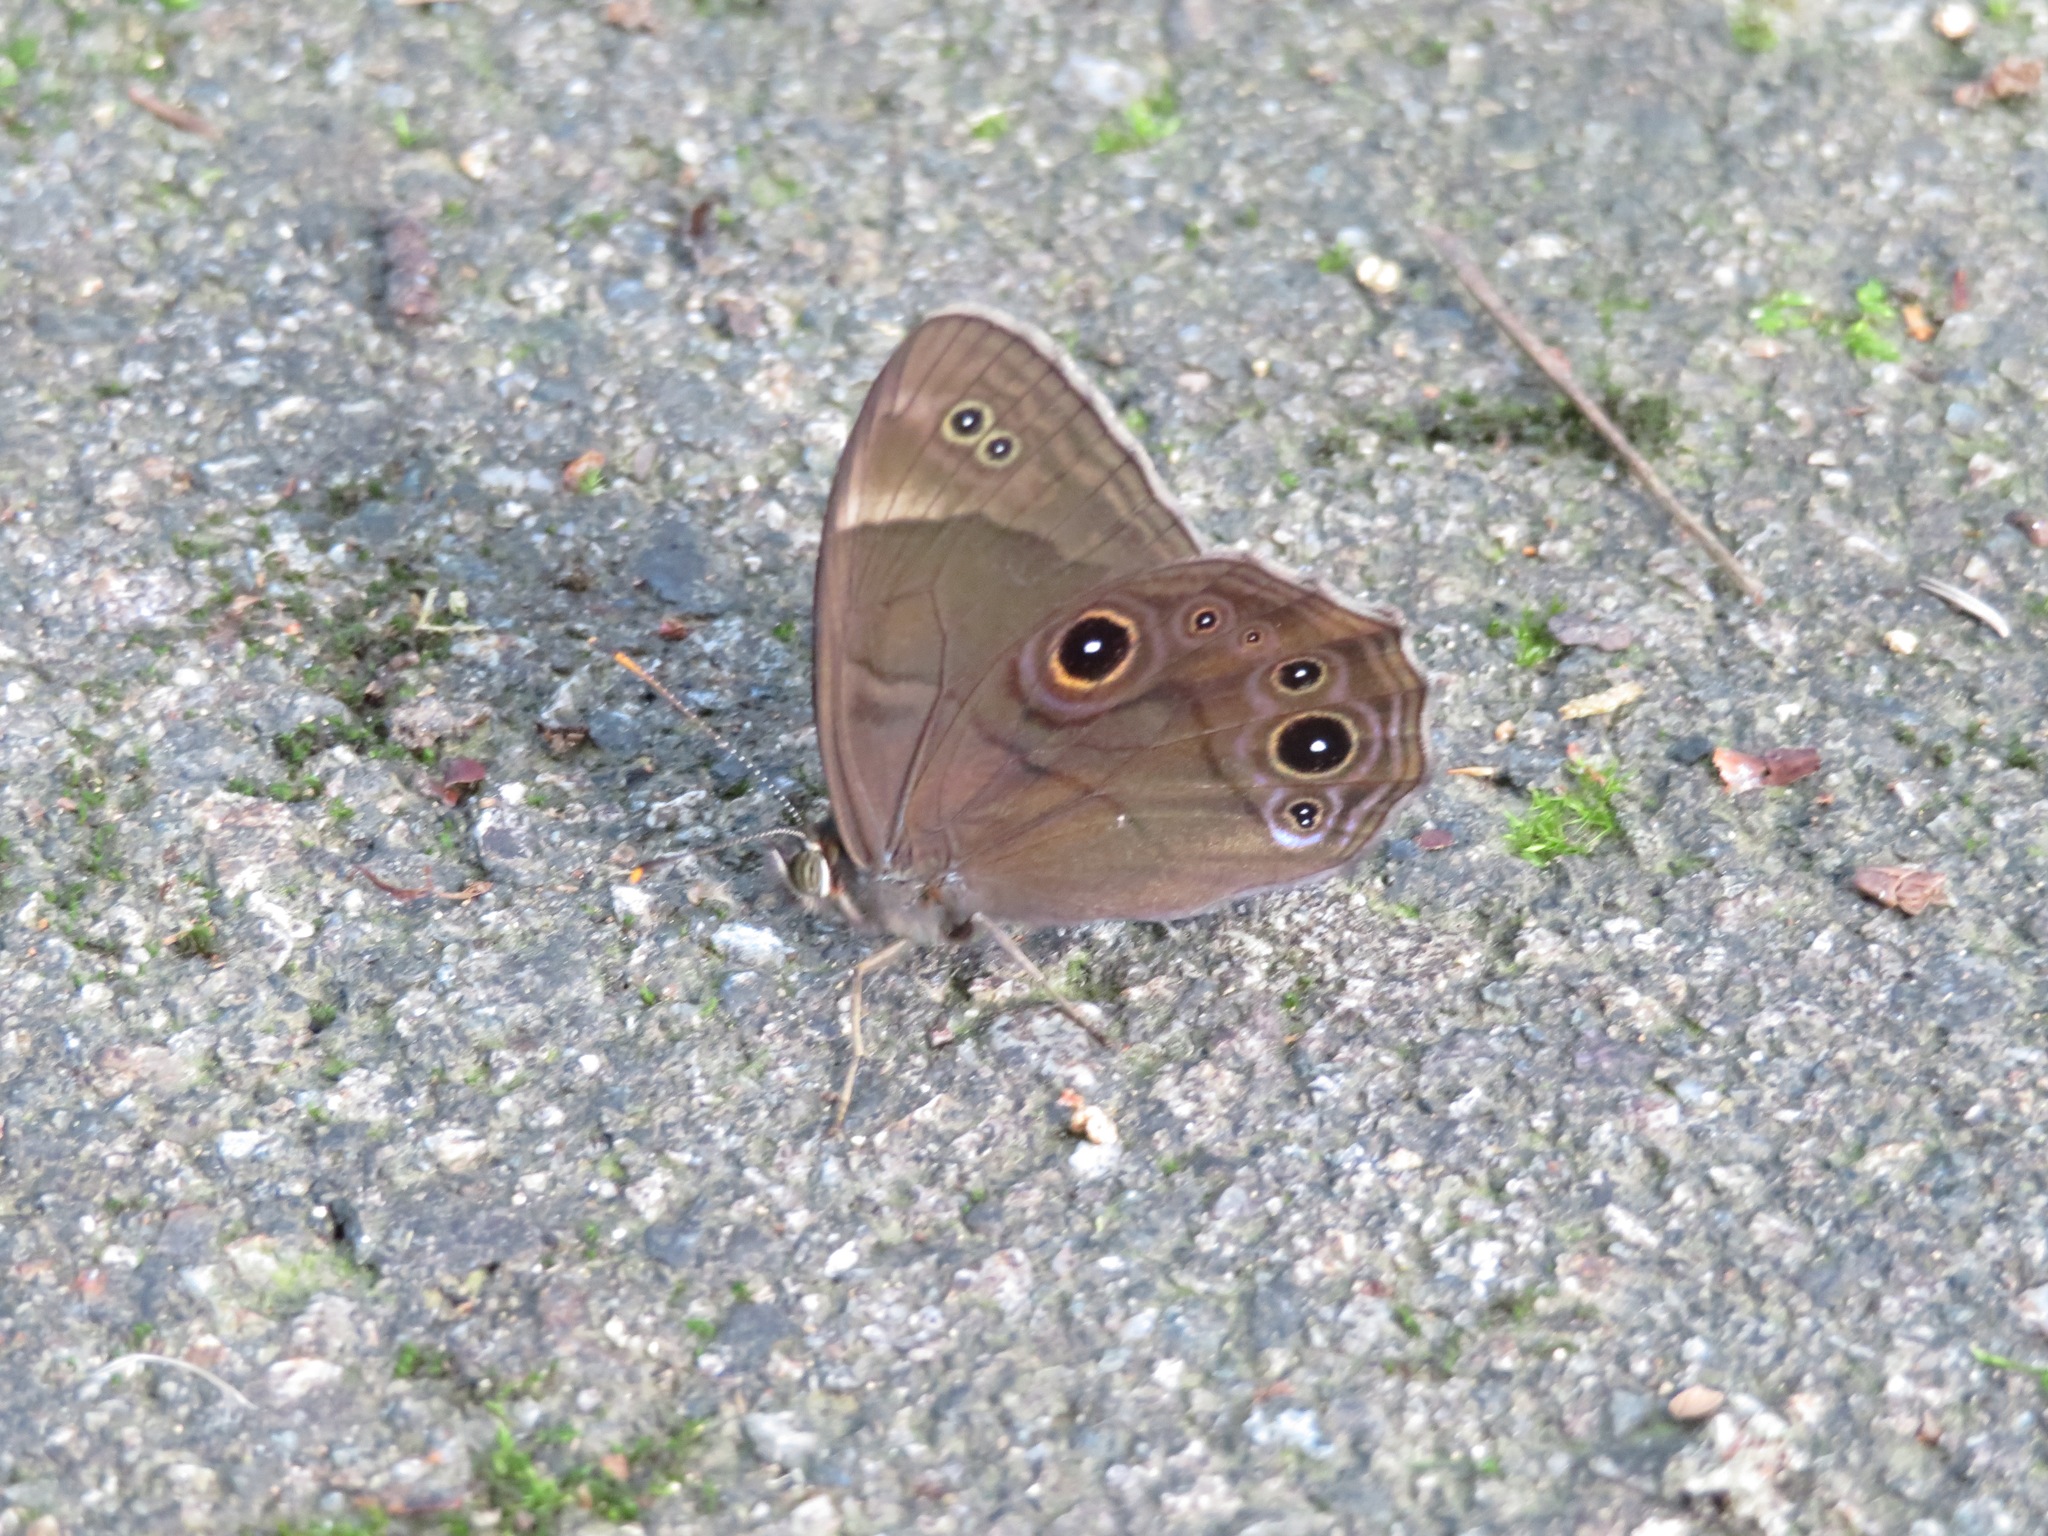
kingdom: Animalia
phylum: Arthropoda
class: Insecta
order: Lepidoptera
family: Nymphalidae
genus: Lethe
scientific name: Lethe diana
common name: Diana treebrown
